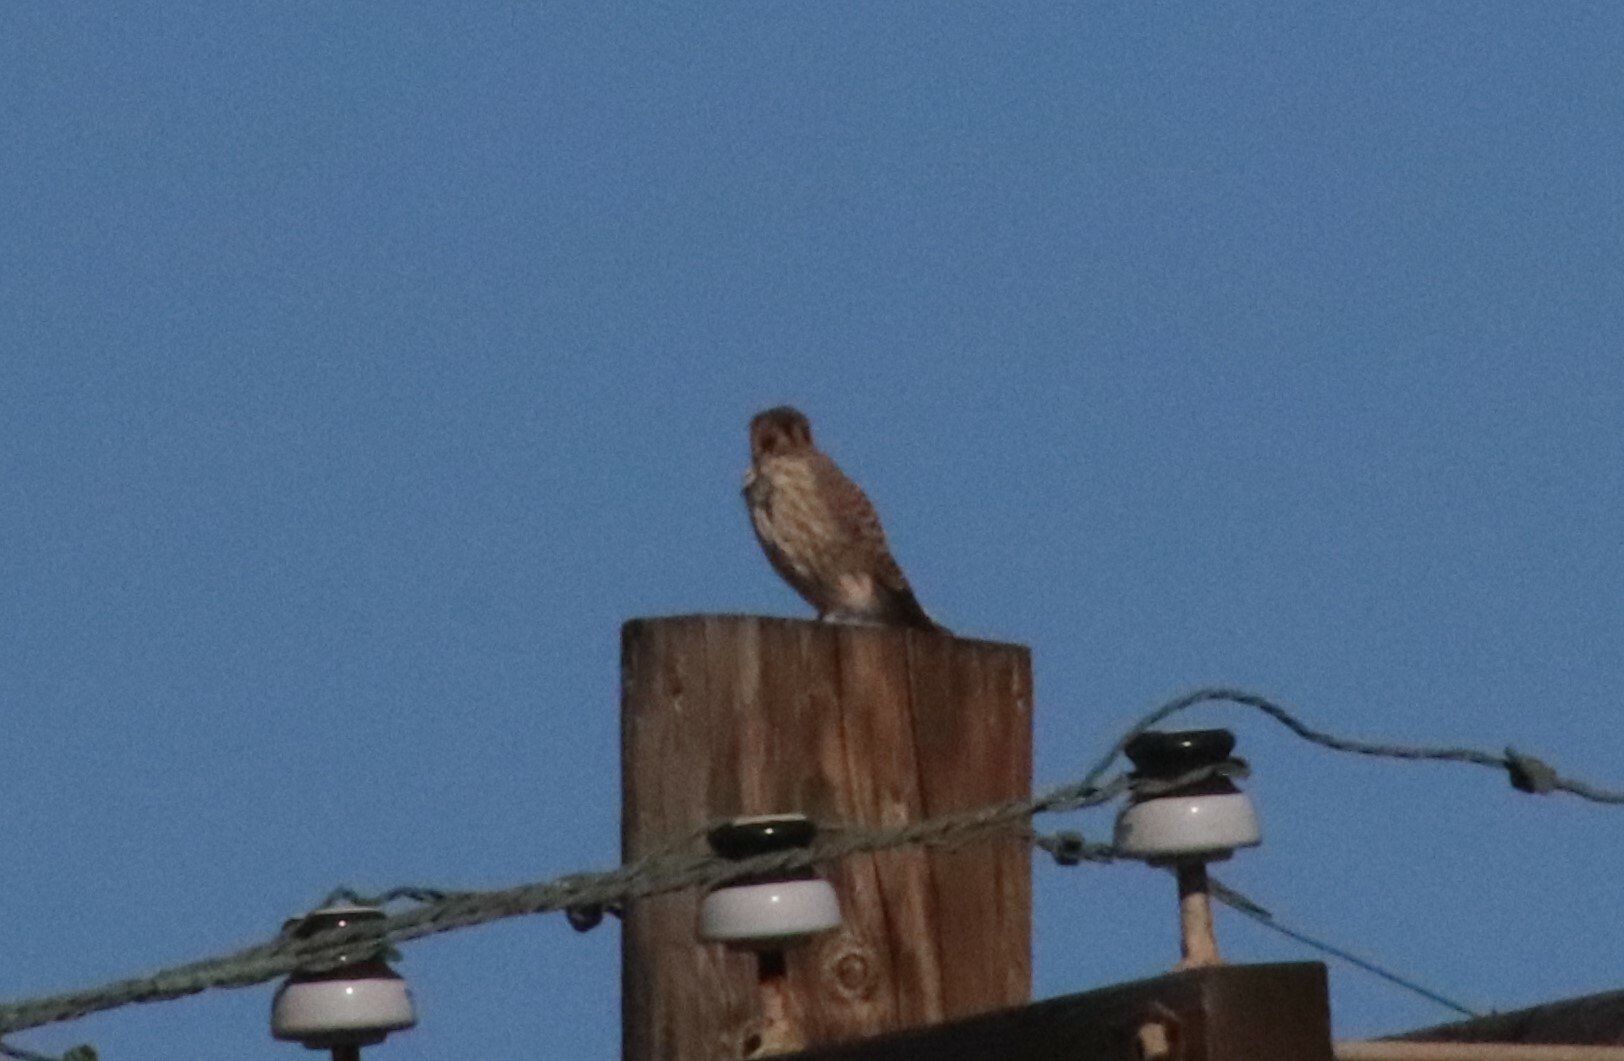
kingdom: Animalia
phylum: Chordata
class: Aves
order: Falconiformes
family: Falconidae
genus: Falco
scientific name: Falco sparverius
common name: American kestrel
